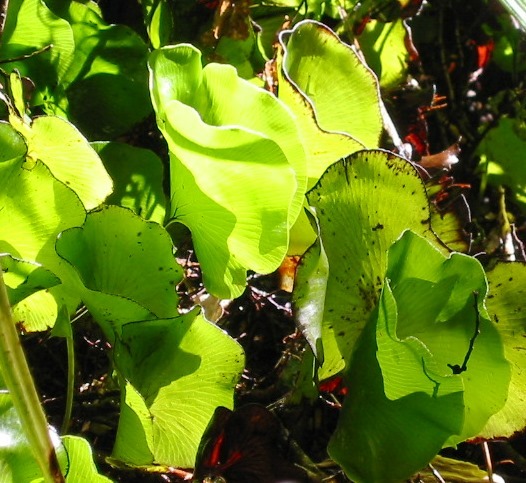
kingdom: Plantae
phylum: Tracheophyta
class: Polypodiopsida
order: Hymenophyllales
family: Hymenophyllaceae
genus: Hymenophyllum
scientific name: Hymenophyllum nephrophyllum
